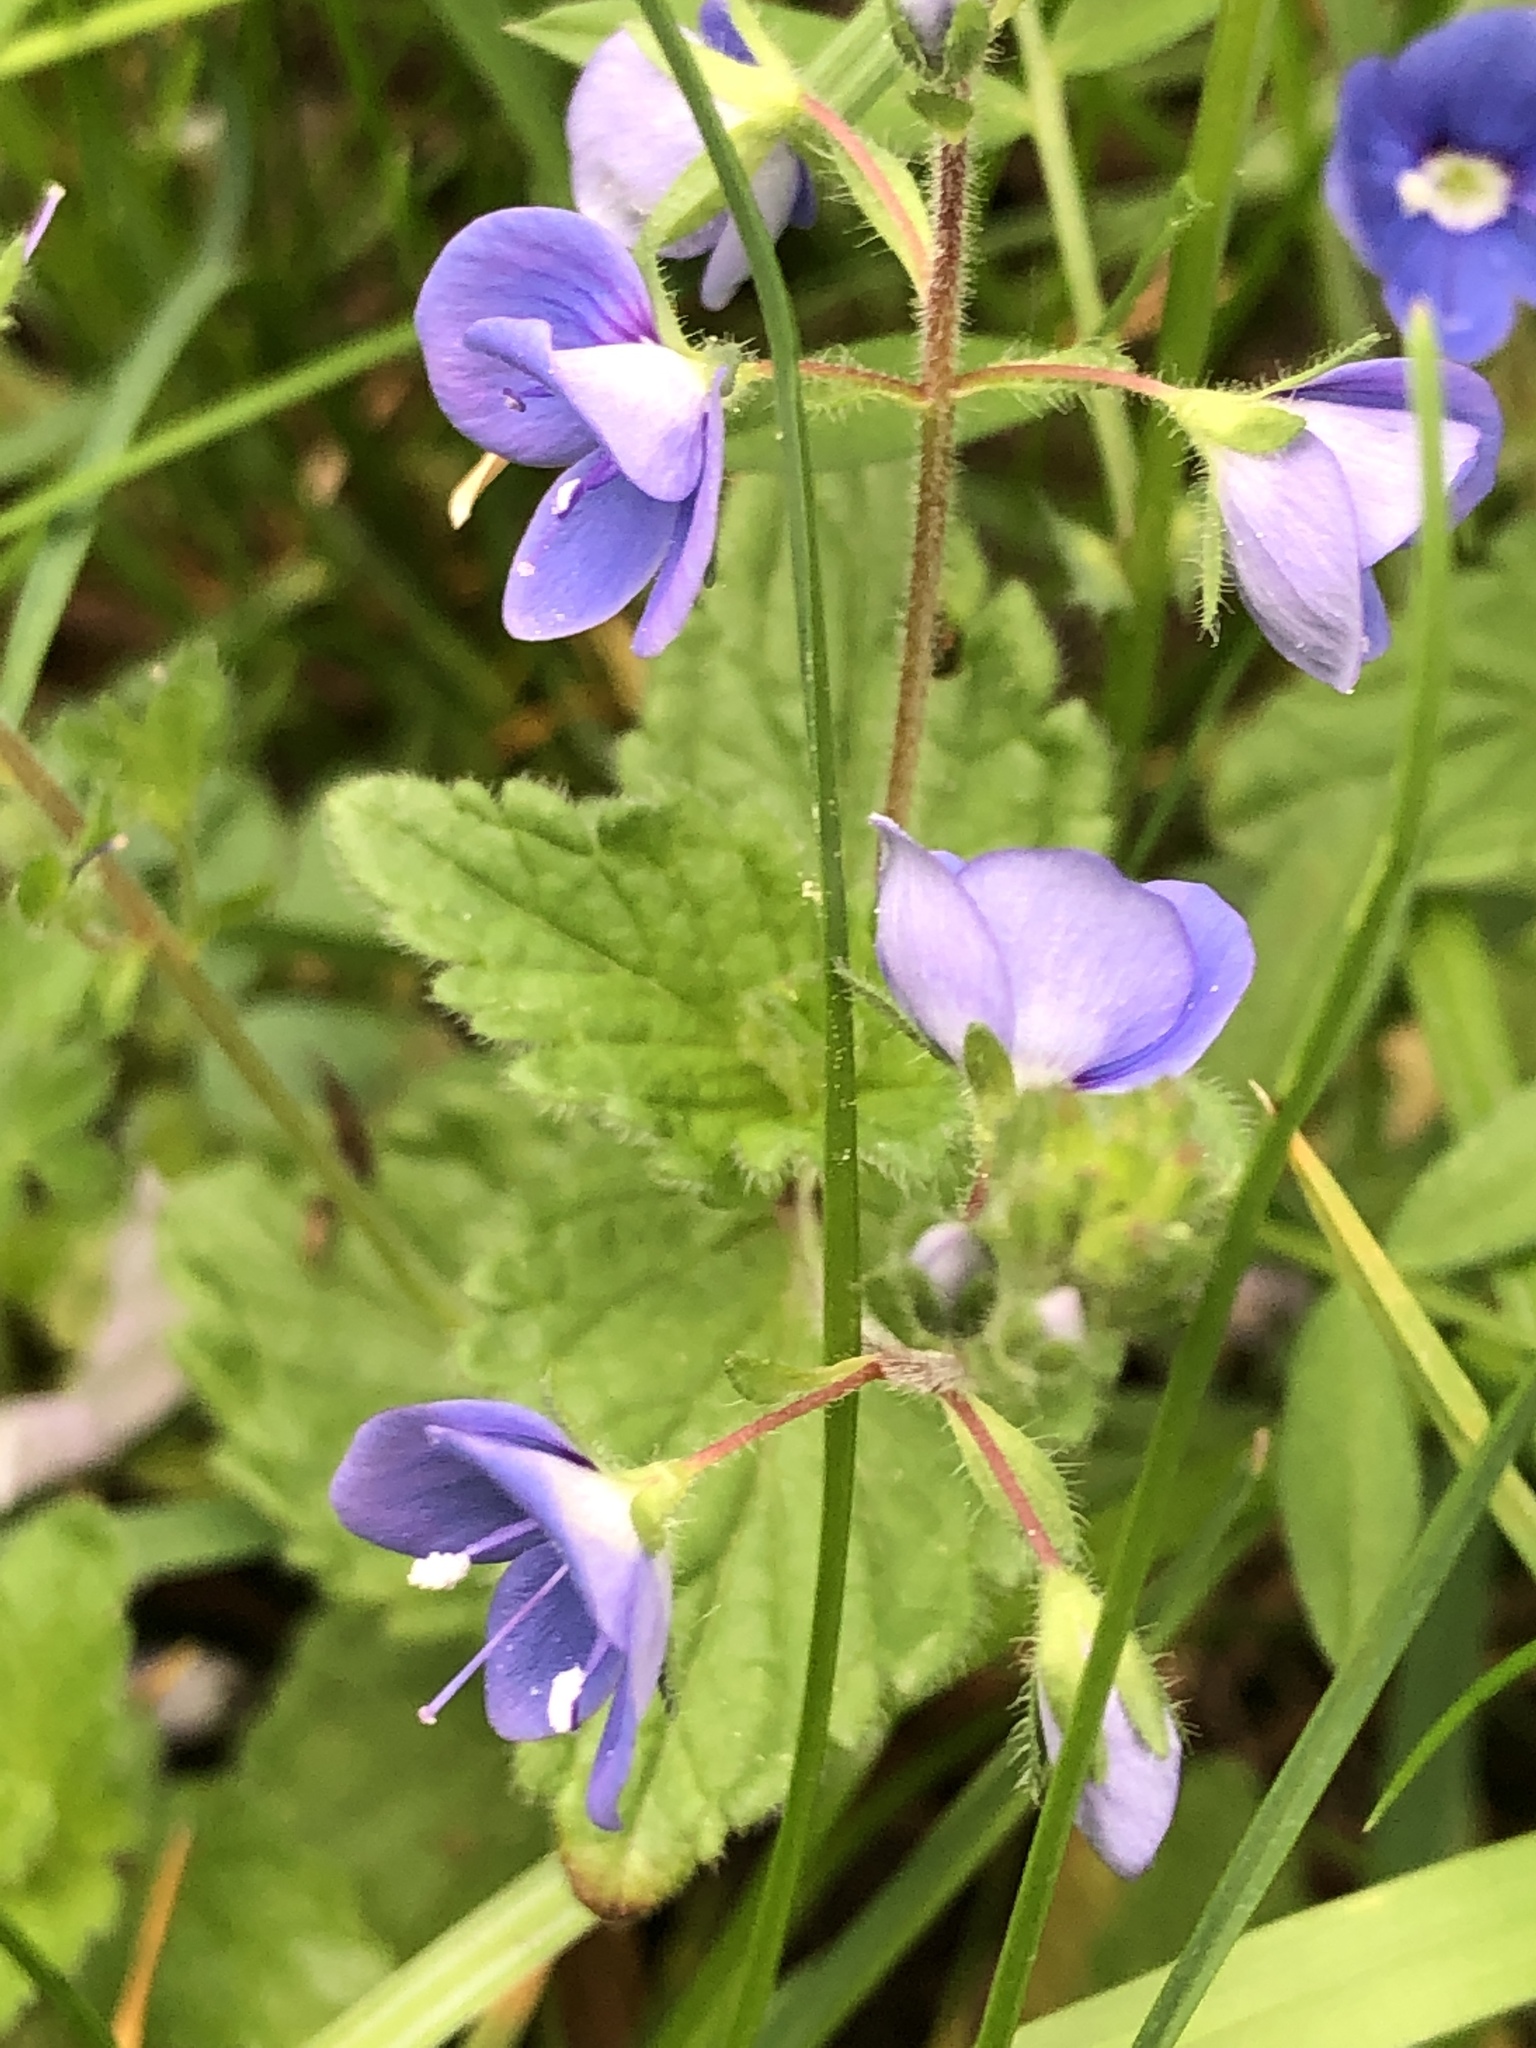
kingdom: Plantae
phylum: Tracheophyta
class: Magnoliopsida
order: Lamiales
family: Plantaginaceae
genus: Veronica
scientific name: Veronica chamaedrys
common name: Germander speedwell
